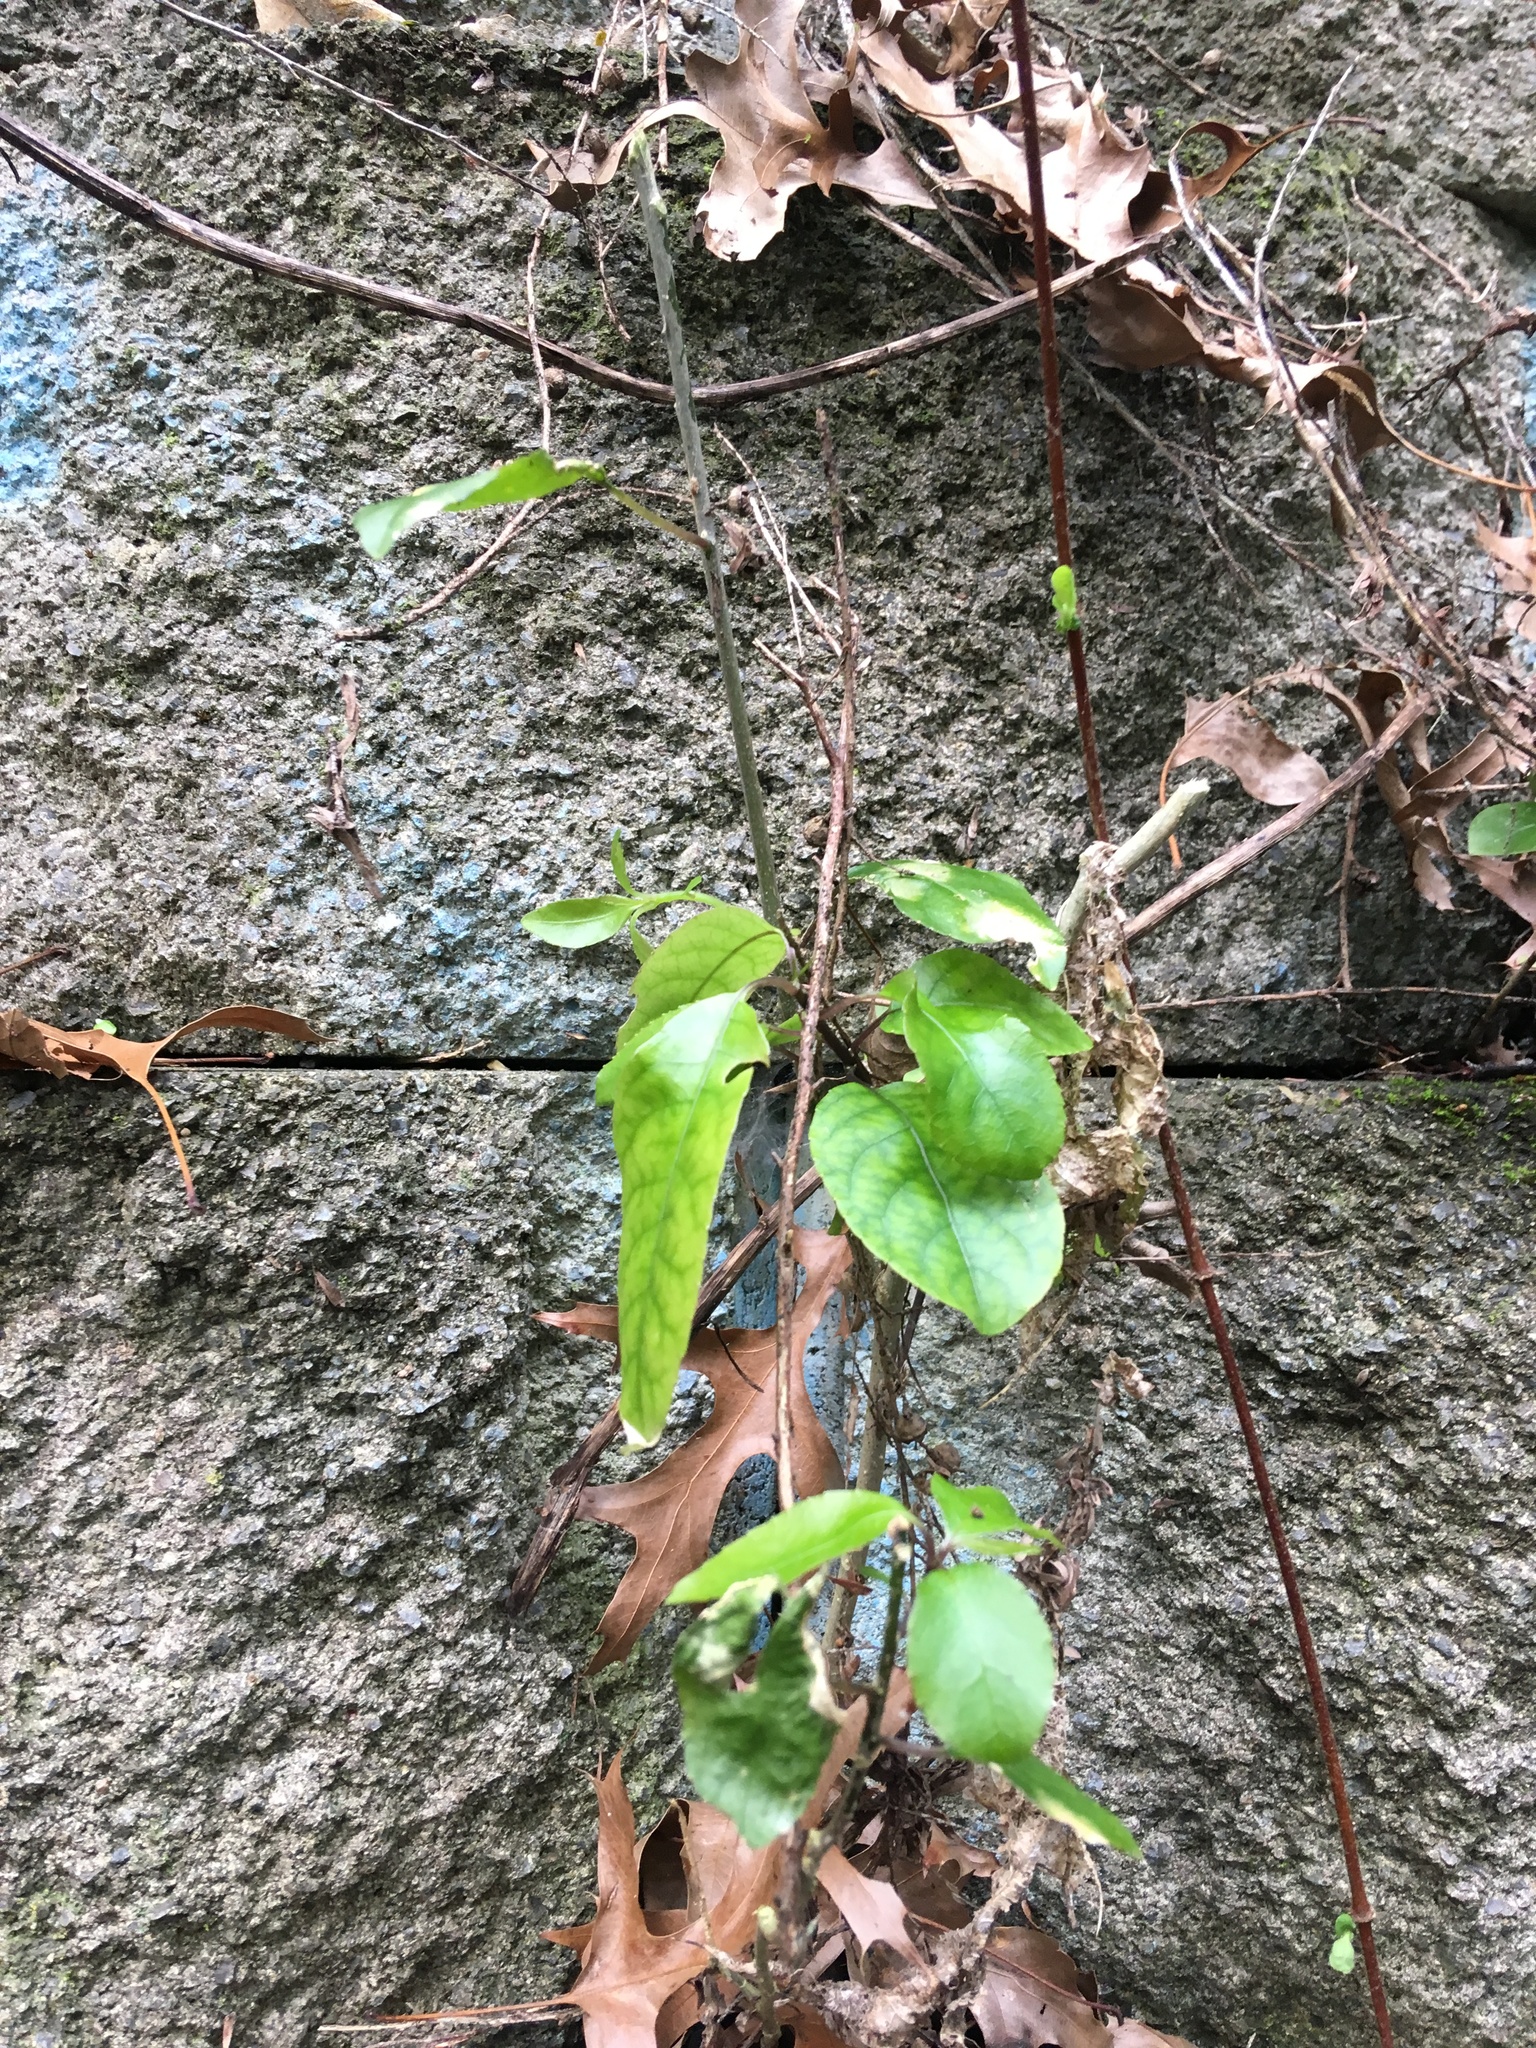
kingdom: Plantae
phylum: Tracheophyta
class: Magnoliopsida
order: Dipsacales
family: Caprifoliaceae
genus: Lonicera
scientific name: Lonicera japonica
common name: Japanese honeysuckle
